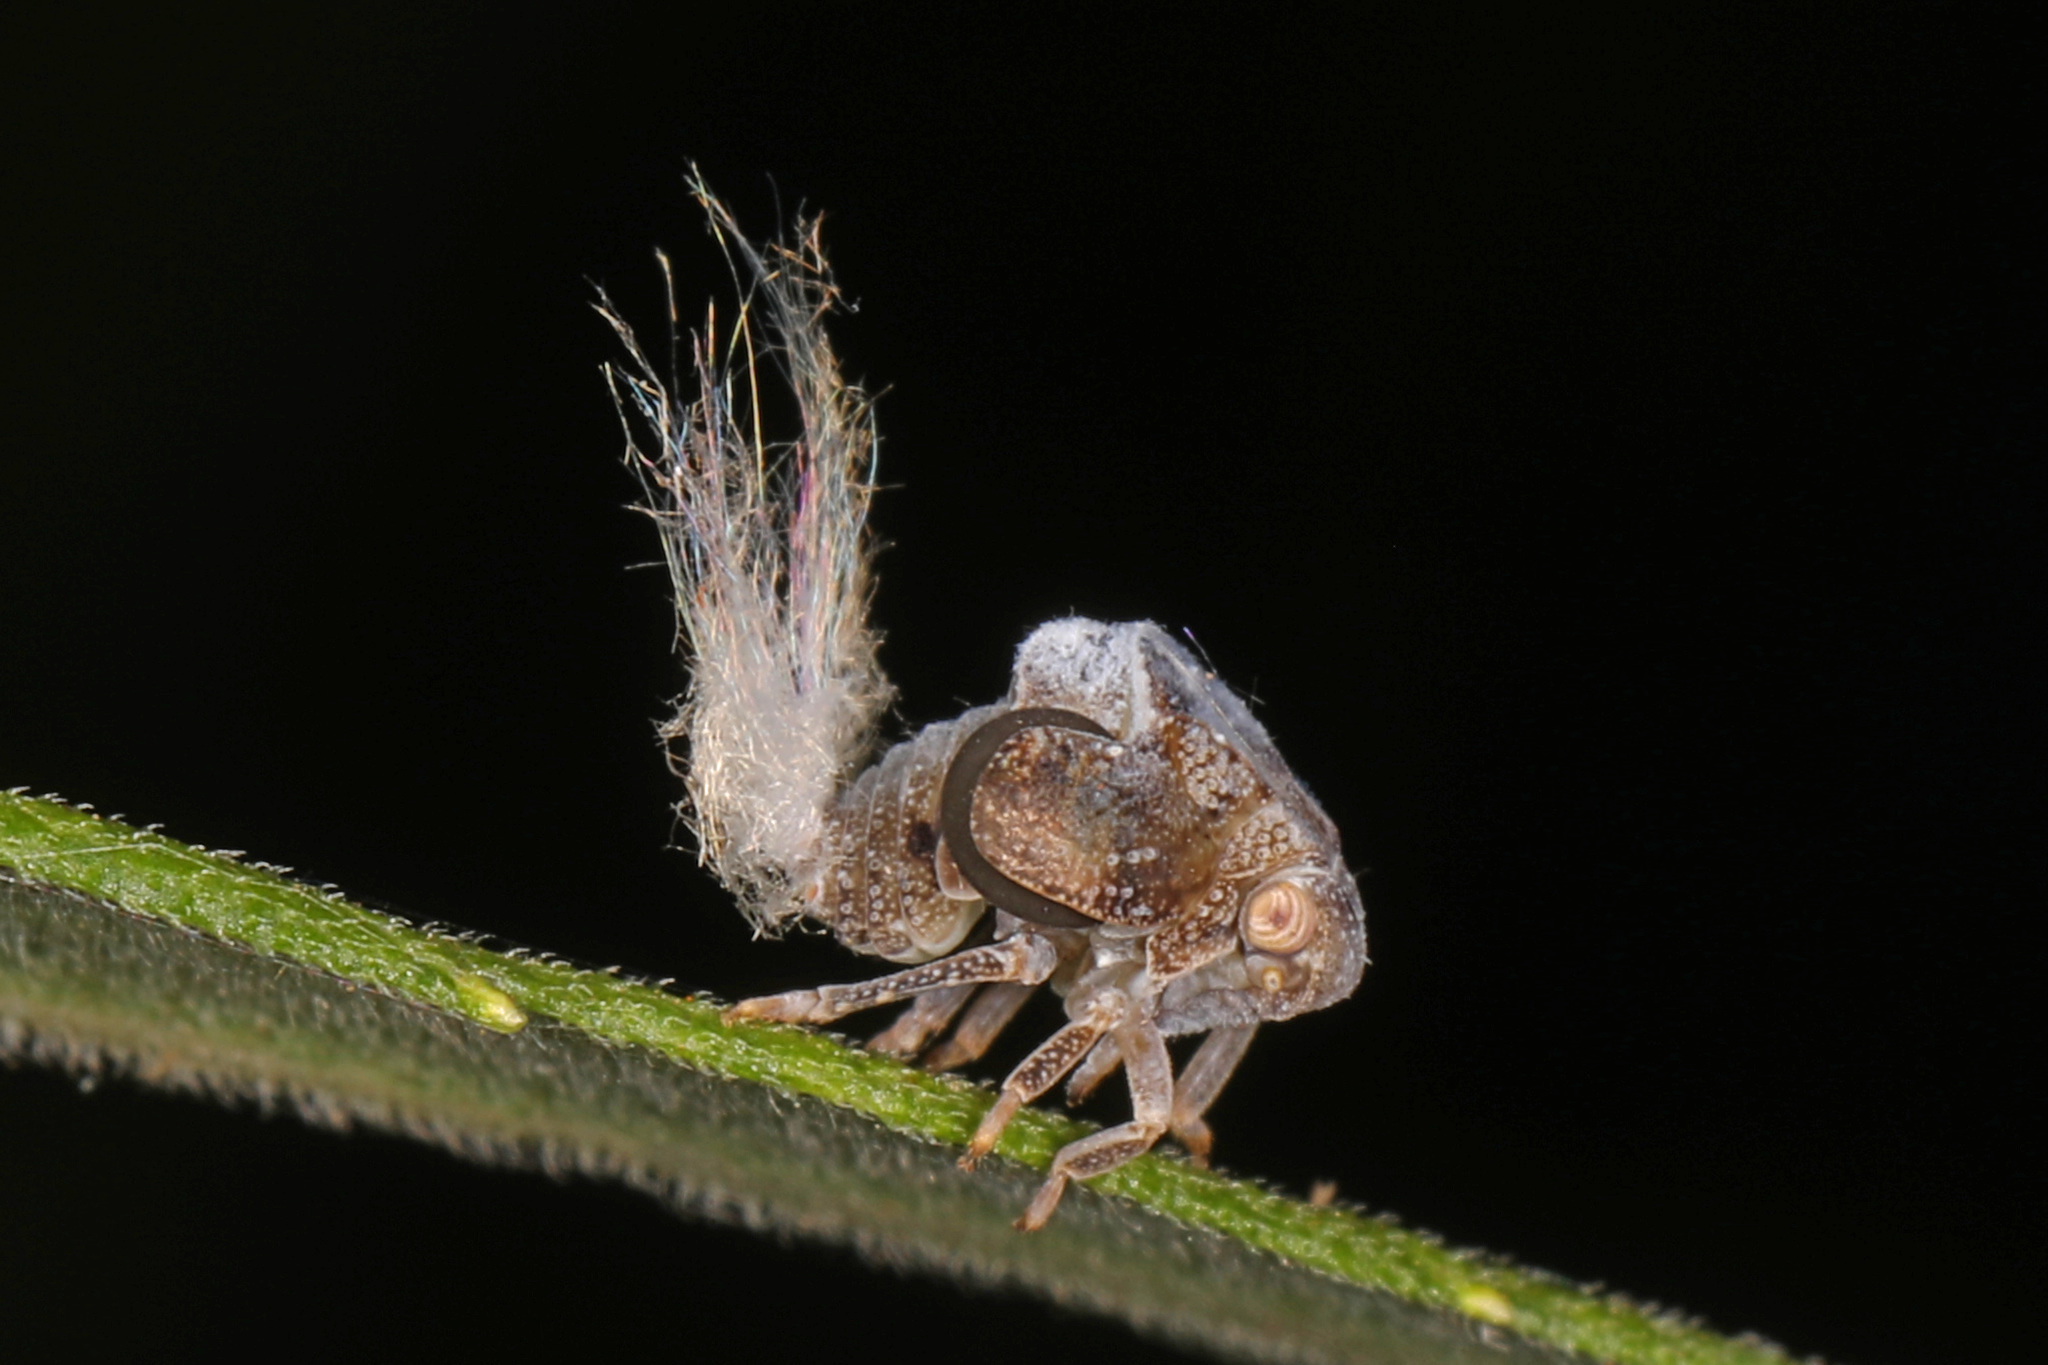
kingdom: Animalia
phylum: Arthropoda
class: Insecta
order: Hemiptera
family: Acanaloniidae
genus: Acanalonia
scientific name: Acanalonia bivittata
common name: Two-striped planthopper
